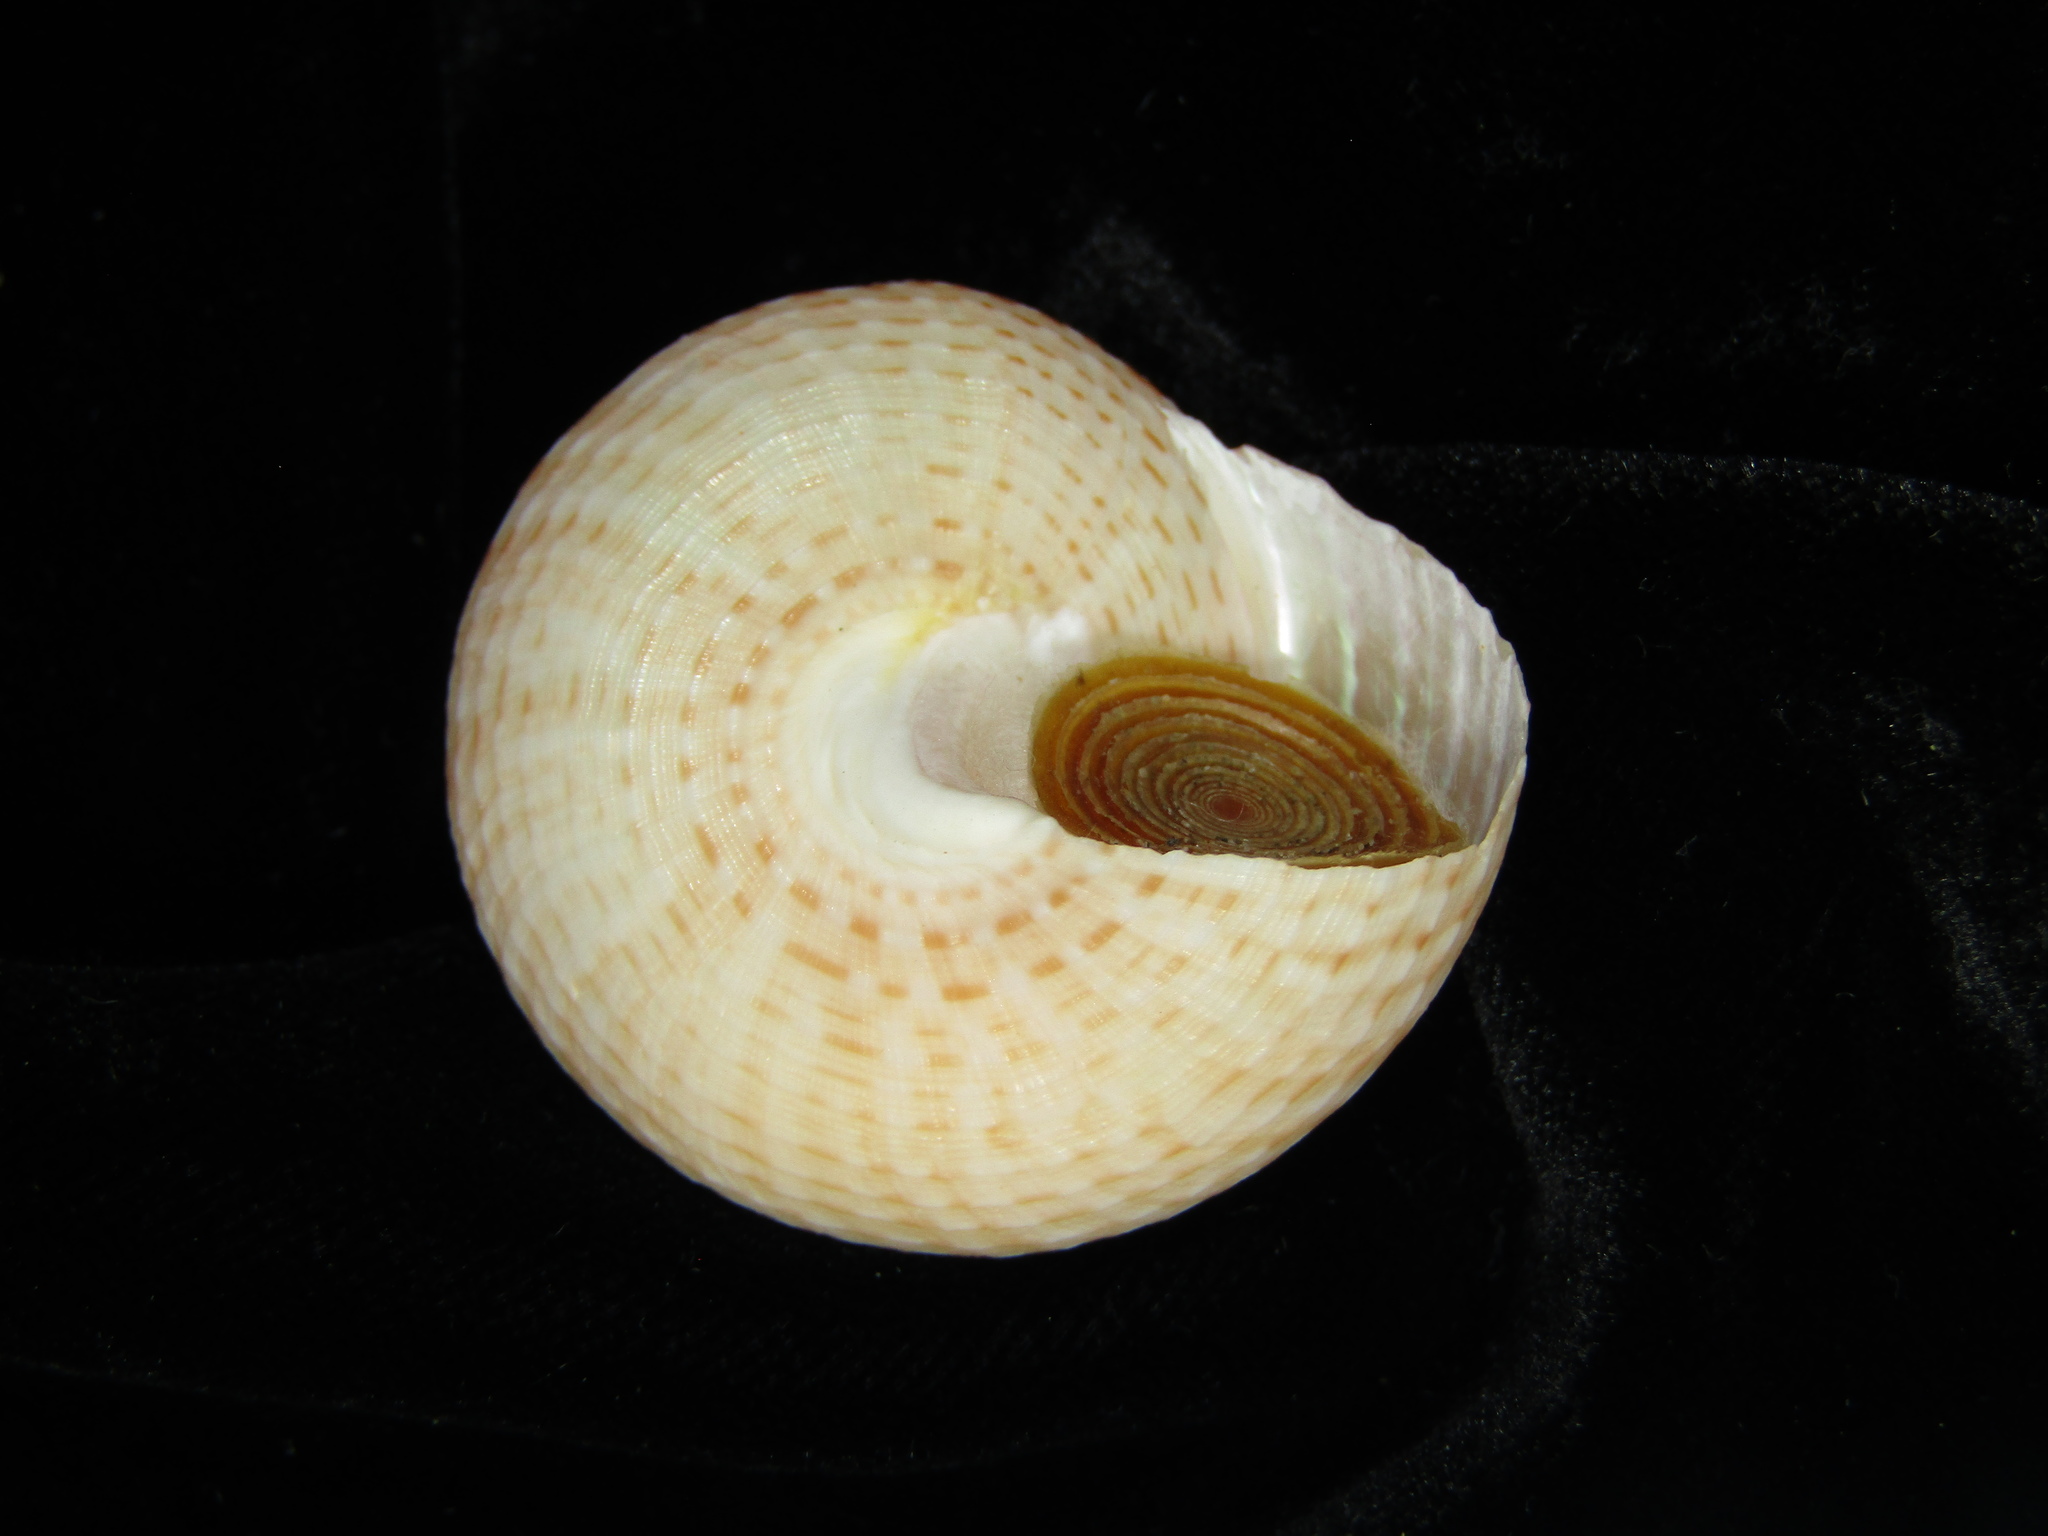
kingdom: Animalia
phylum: Mollusca
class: Gastropoda
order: Trochida
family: Calliostomatidae
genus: Maurea
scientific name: Maurea blacki
